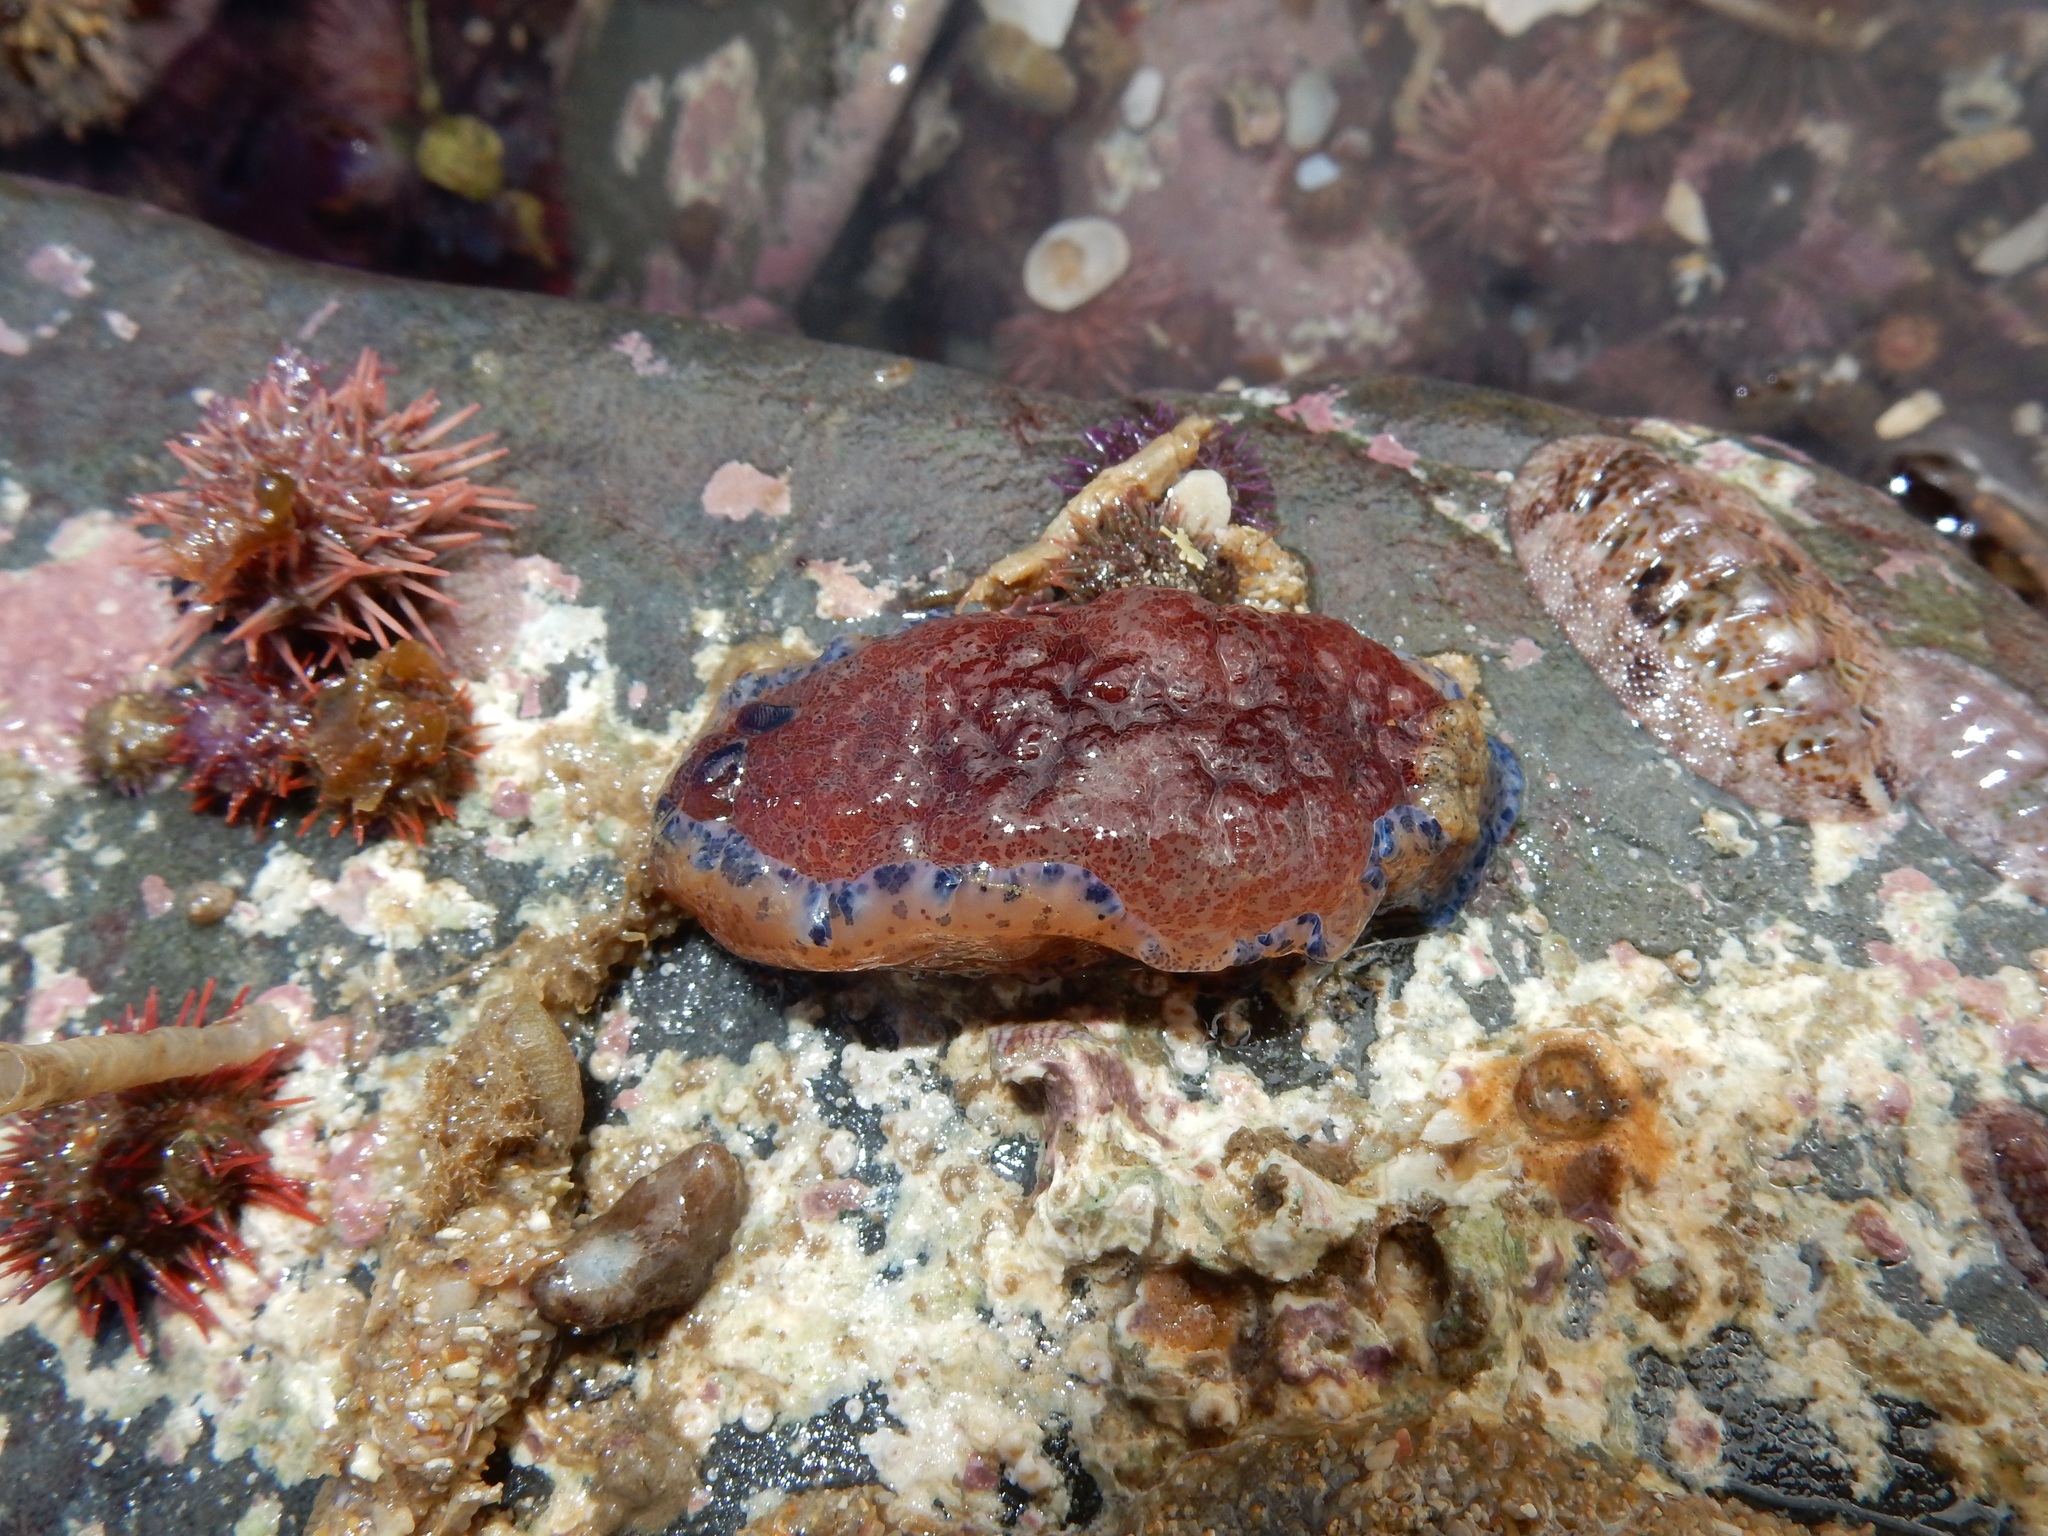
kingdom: Animalia
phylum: Mollusca
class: Gastropoda
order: Nudibranchia
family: Dendrodorididae
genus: Dendrodoris
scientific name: Dendrodoris caesia
